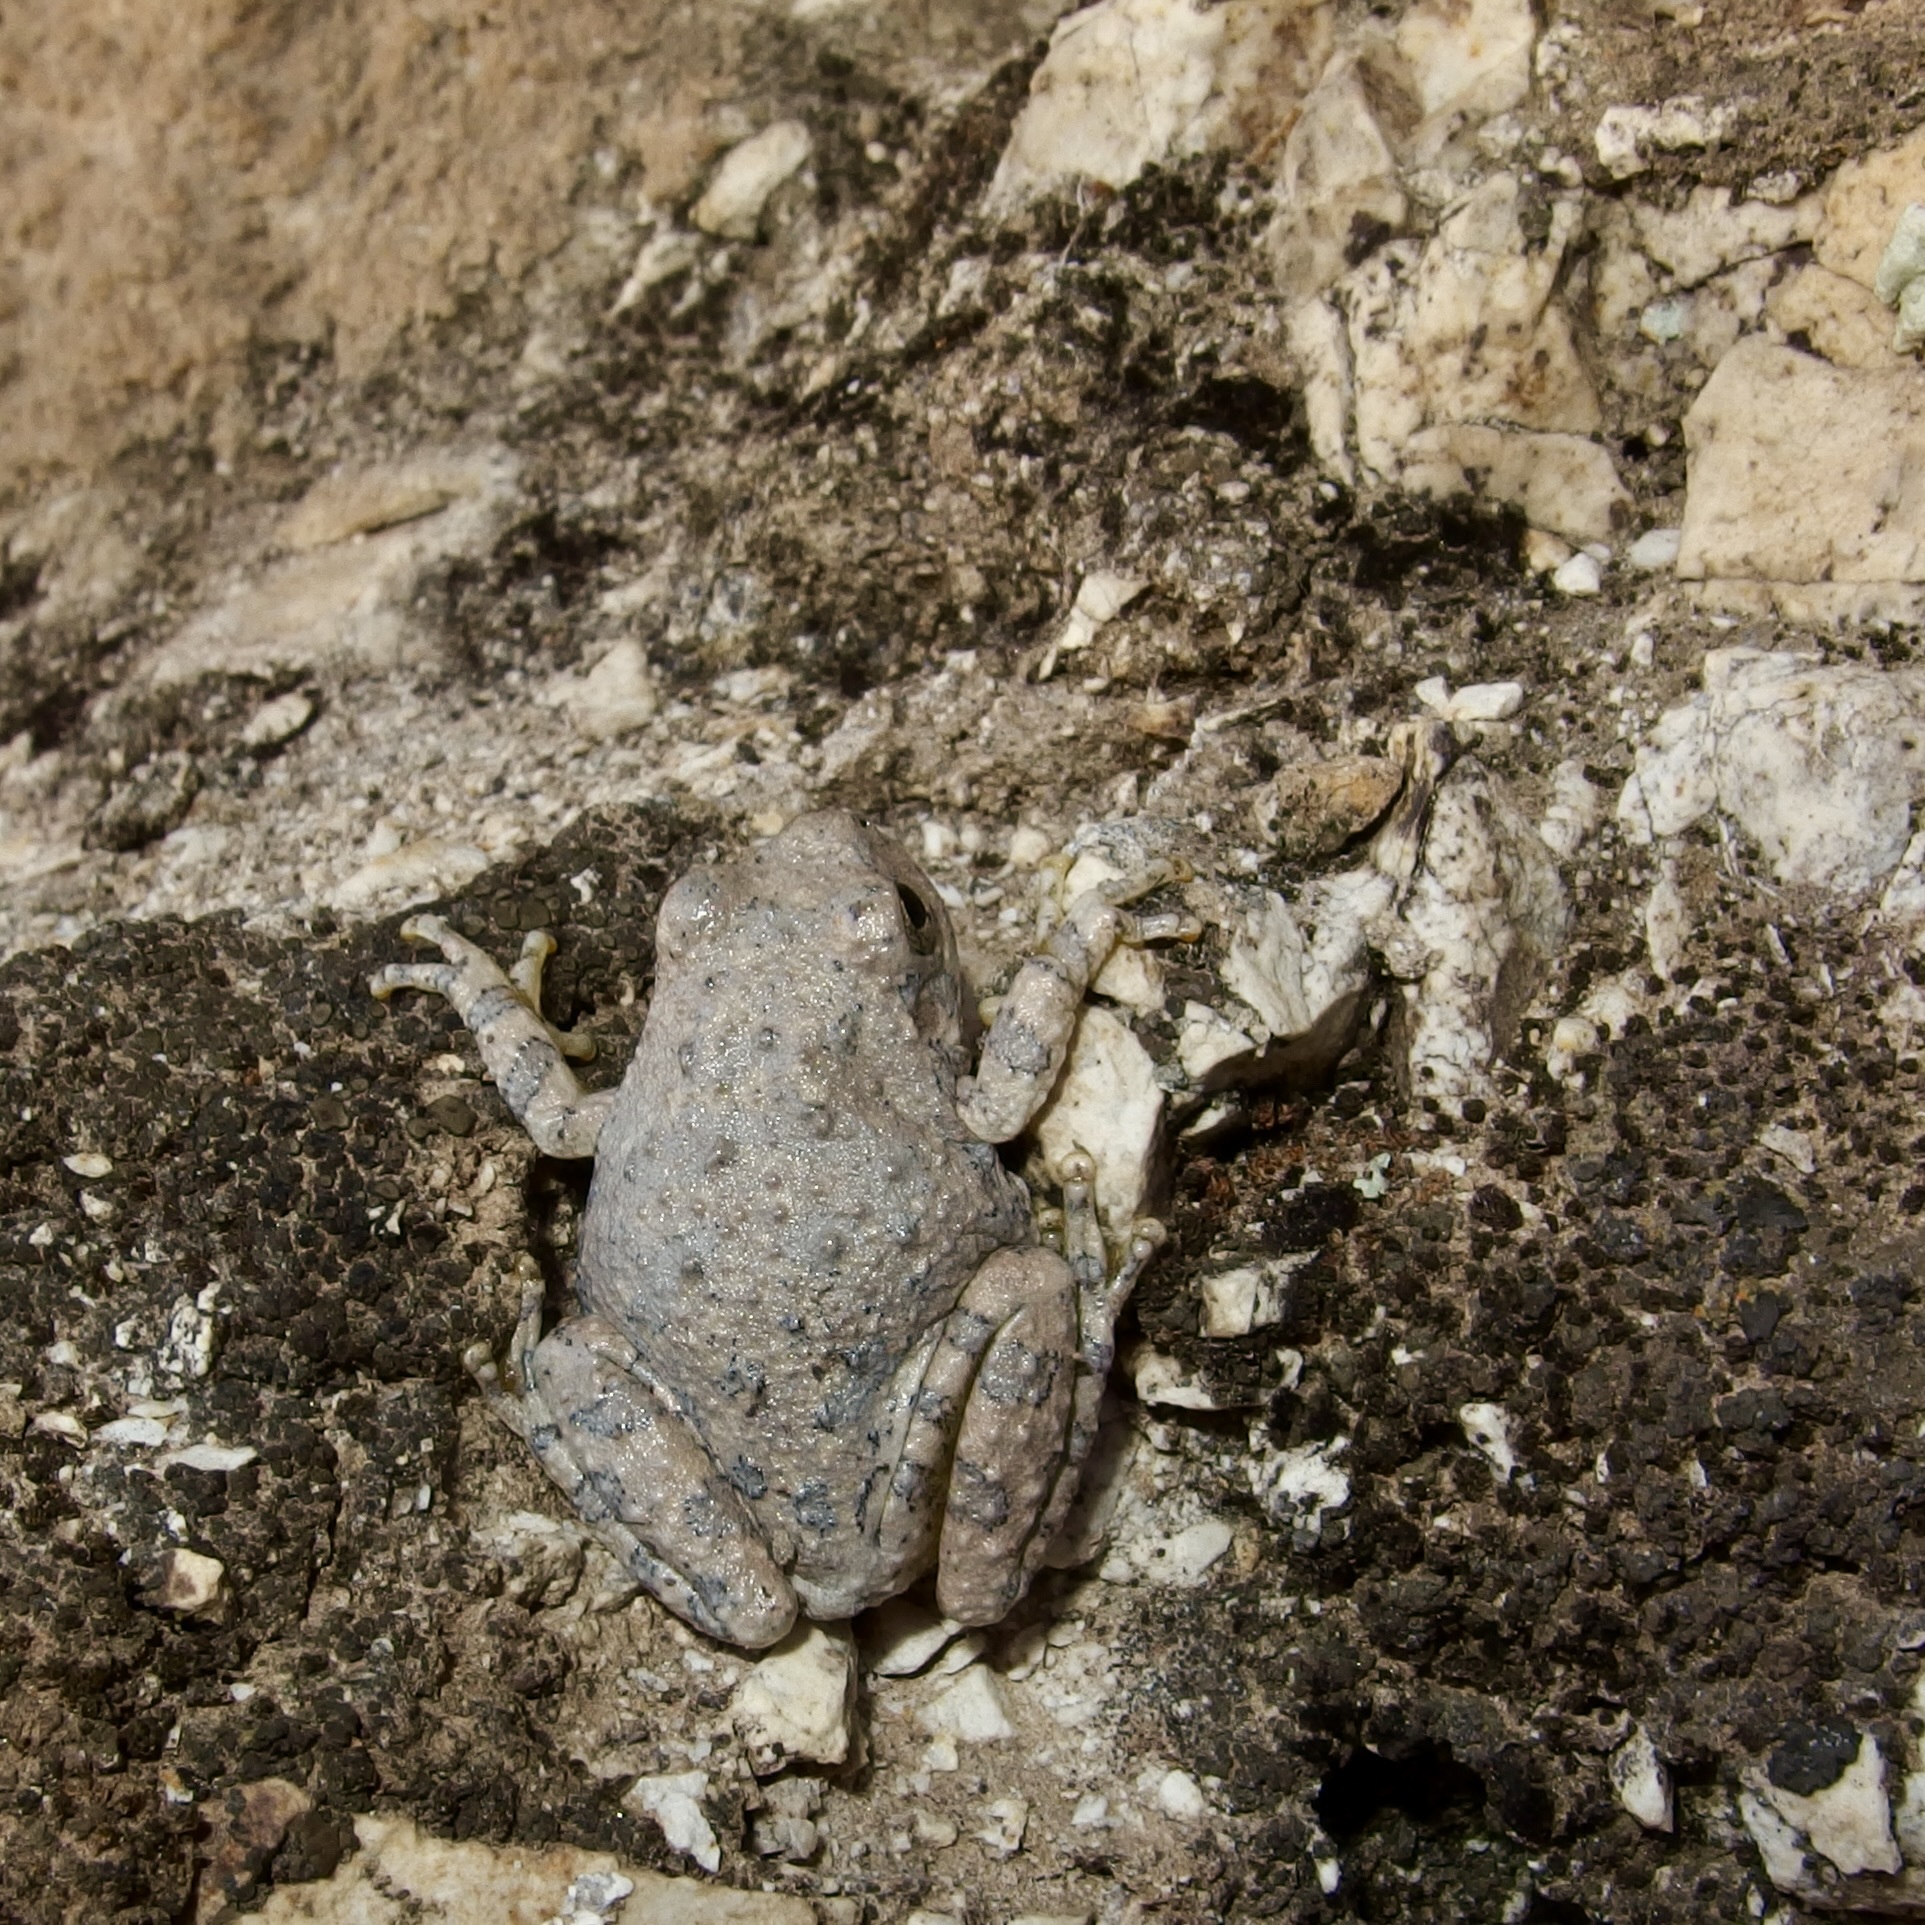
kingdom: Animalia
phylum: Chordata
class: Amphibia
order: Anura
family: Hylidae
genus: Dryophytes
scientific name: Dryophytes arenicolor
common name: Canyon treefrog
